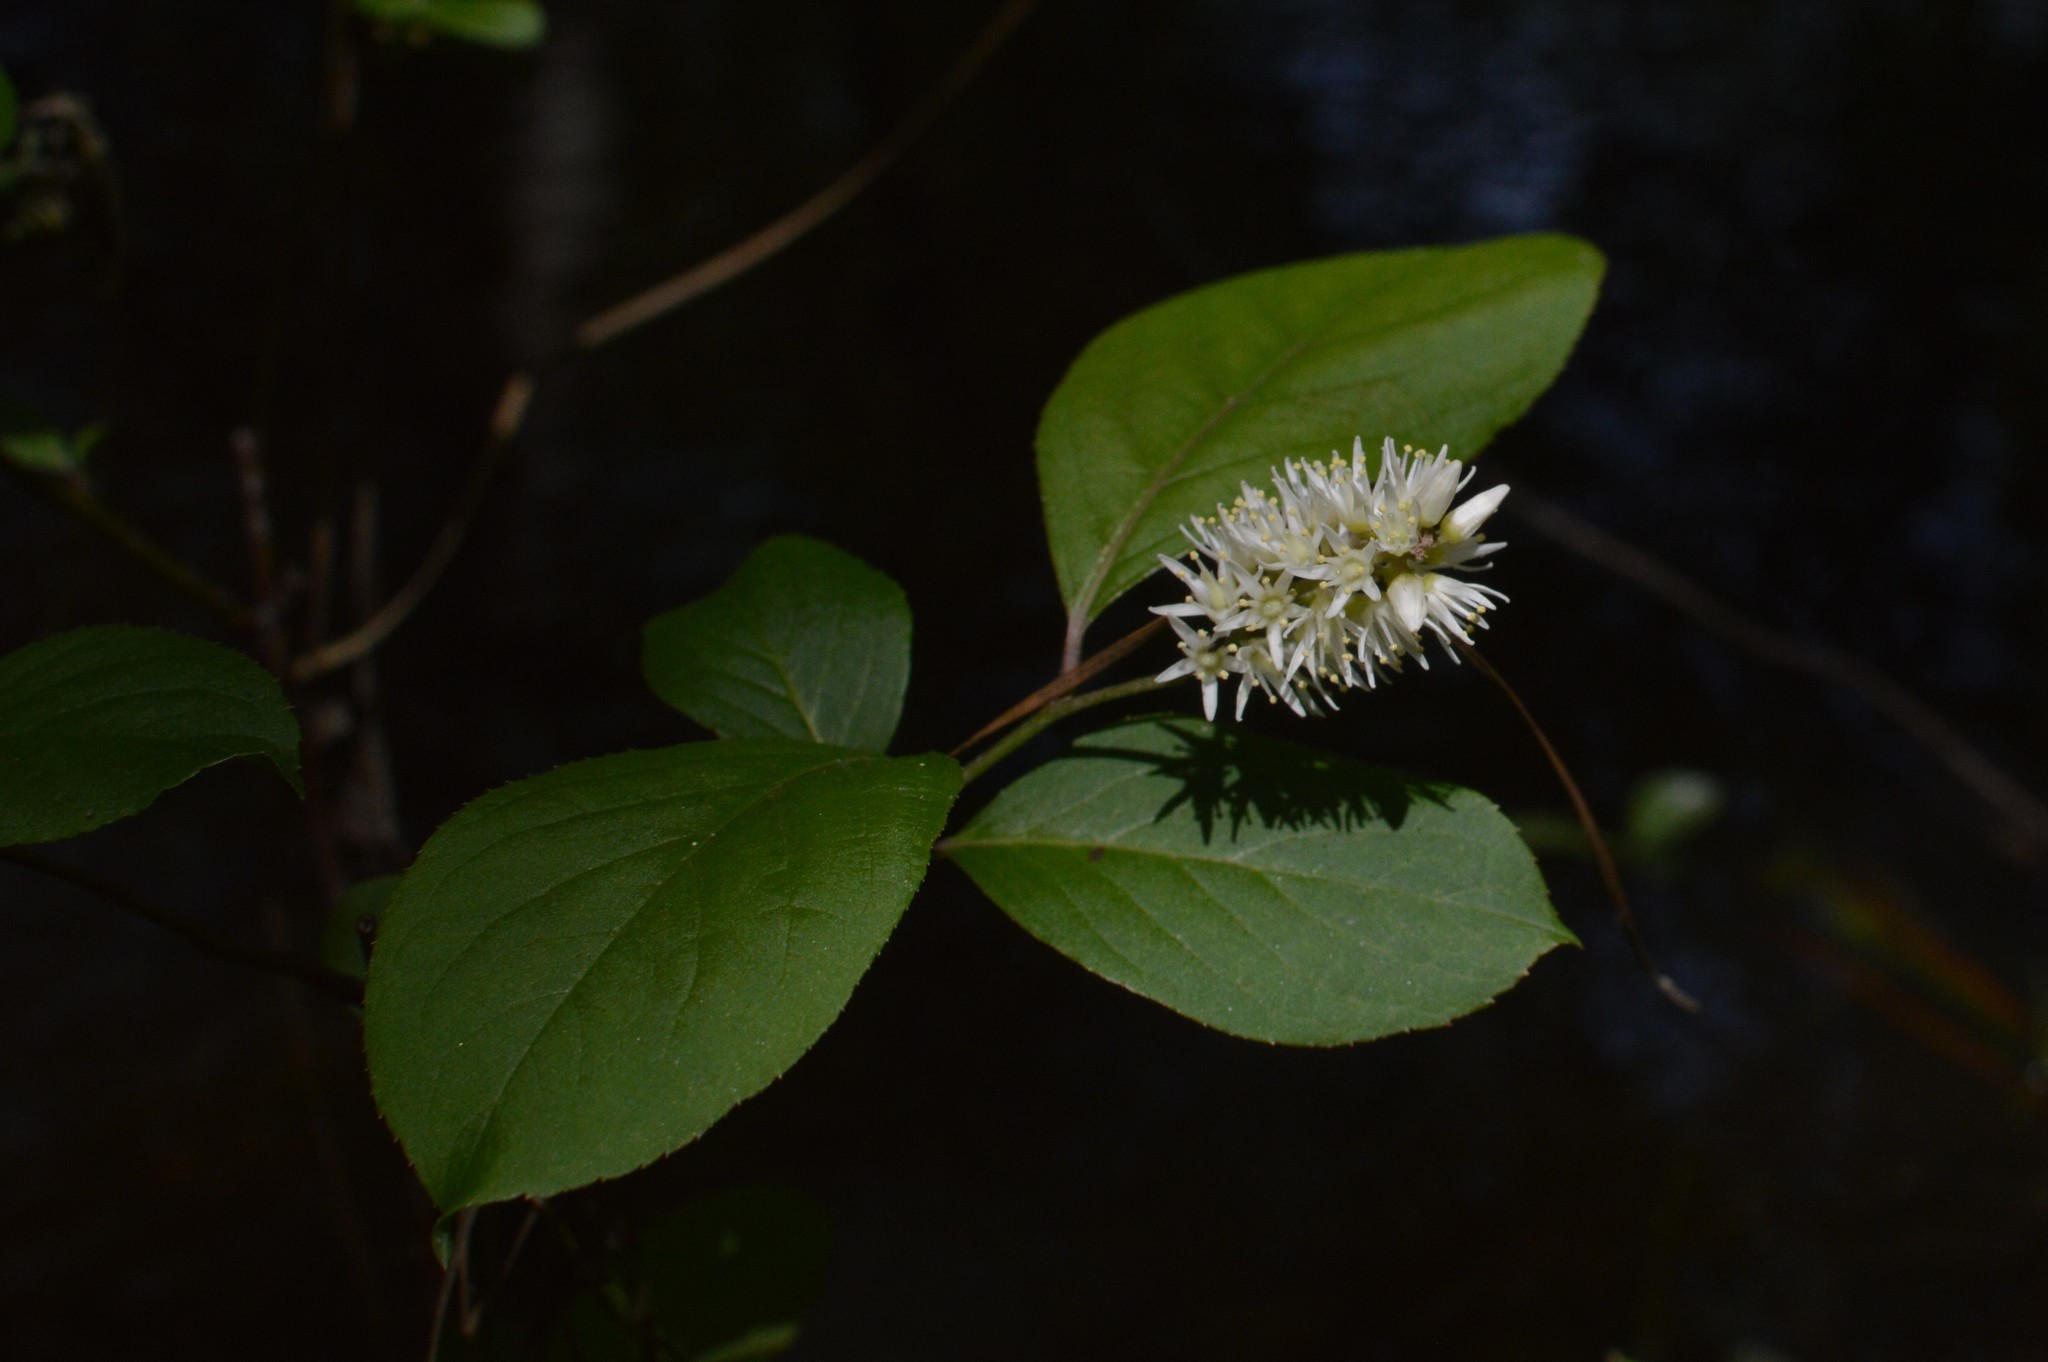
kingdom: Plantae
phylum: Tracheophyta
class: Magnoliopsida
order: Saxifragales
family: Iteaceae
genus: Itea
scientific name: Itea virginica
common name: Sweetspire
